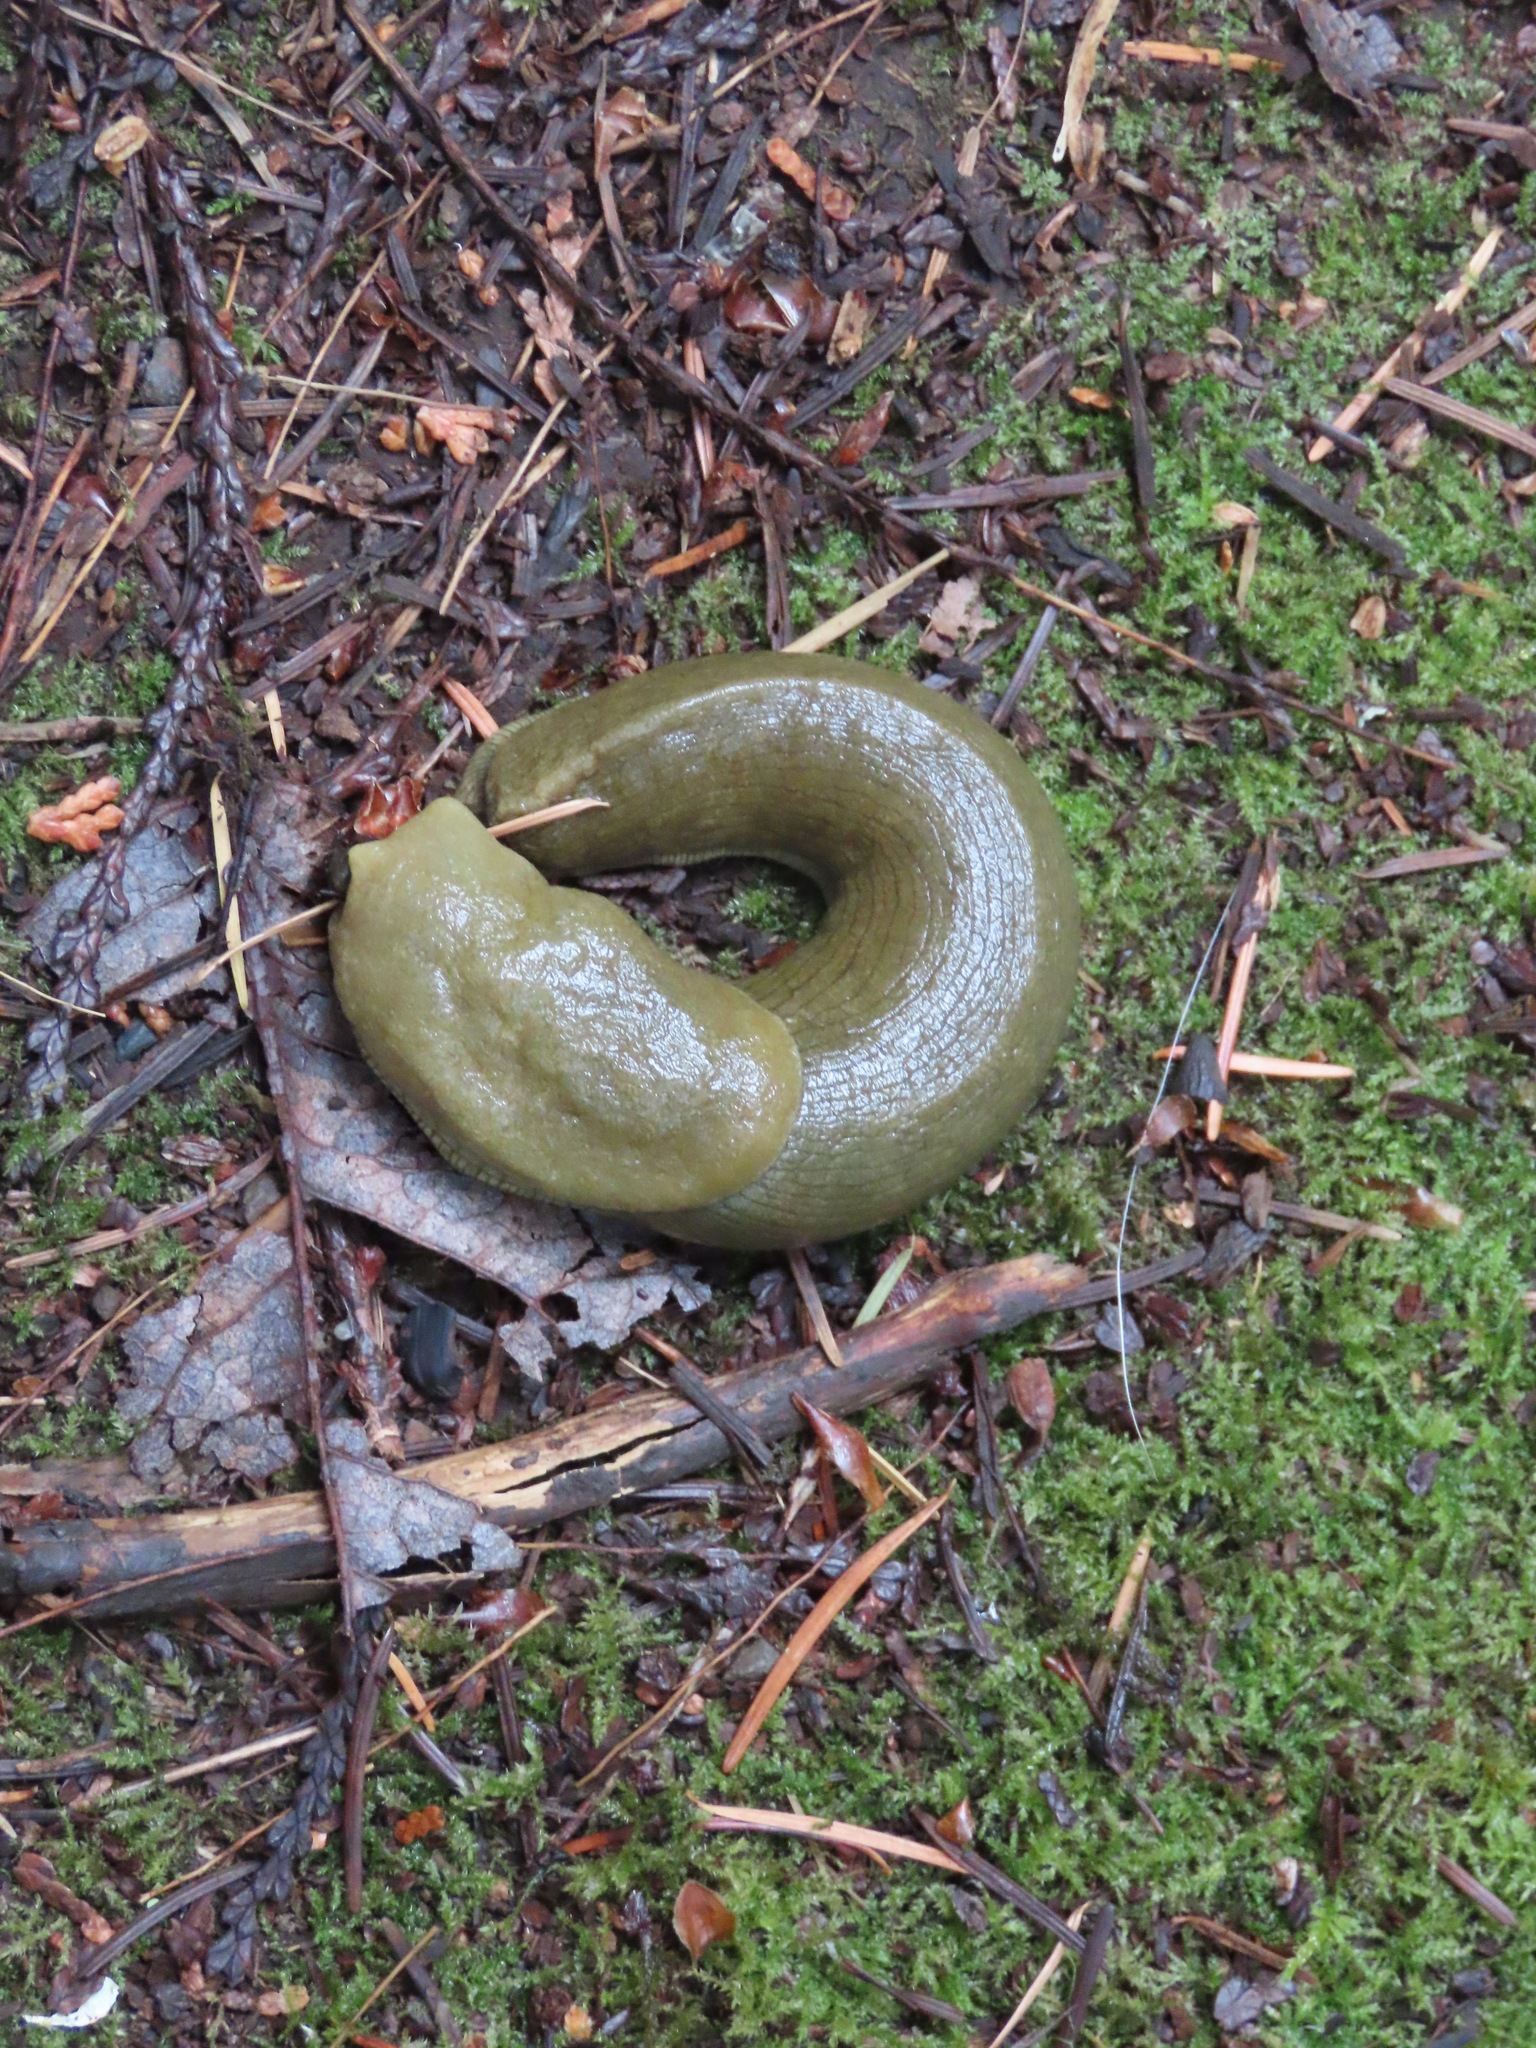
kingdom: Animalia
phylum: Mollusca
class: Gastropoda
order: Stylommatophora
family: Ariolimacidae
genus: Ariolimax
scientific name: Ariolimax columbianus
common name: Pacific banana slug
